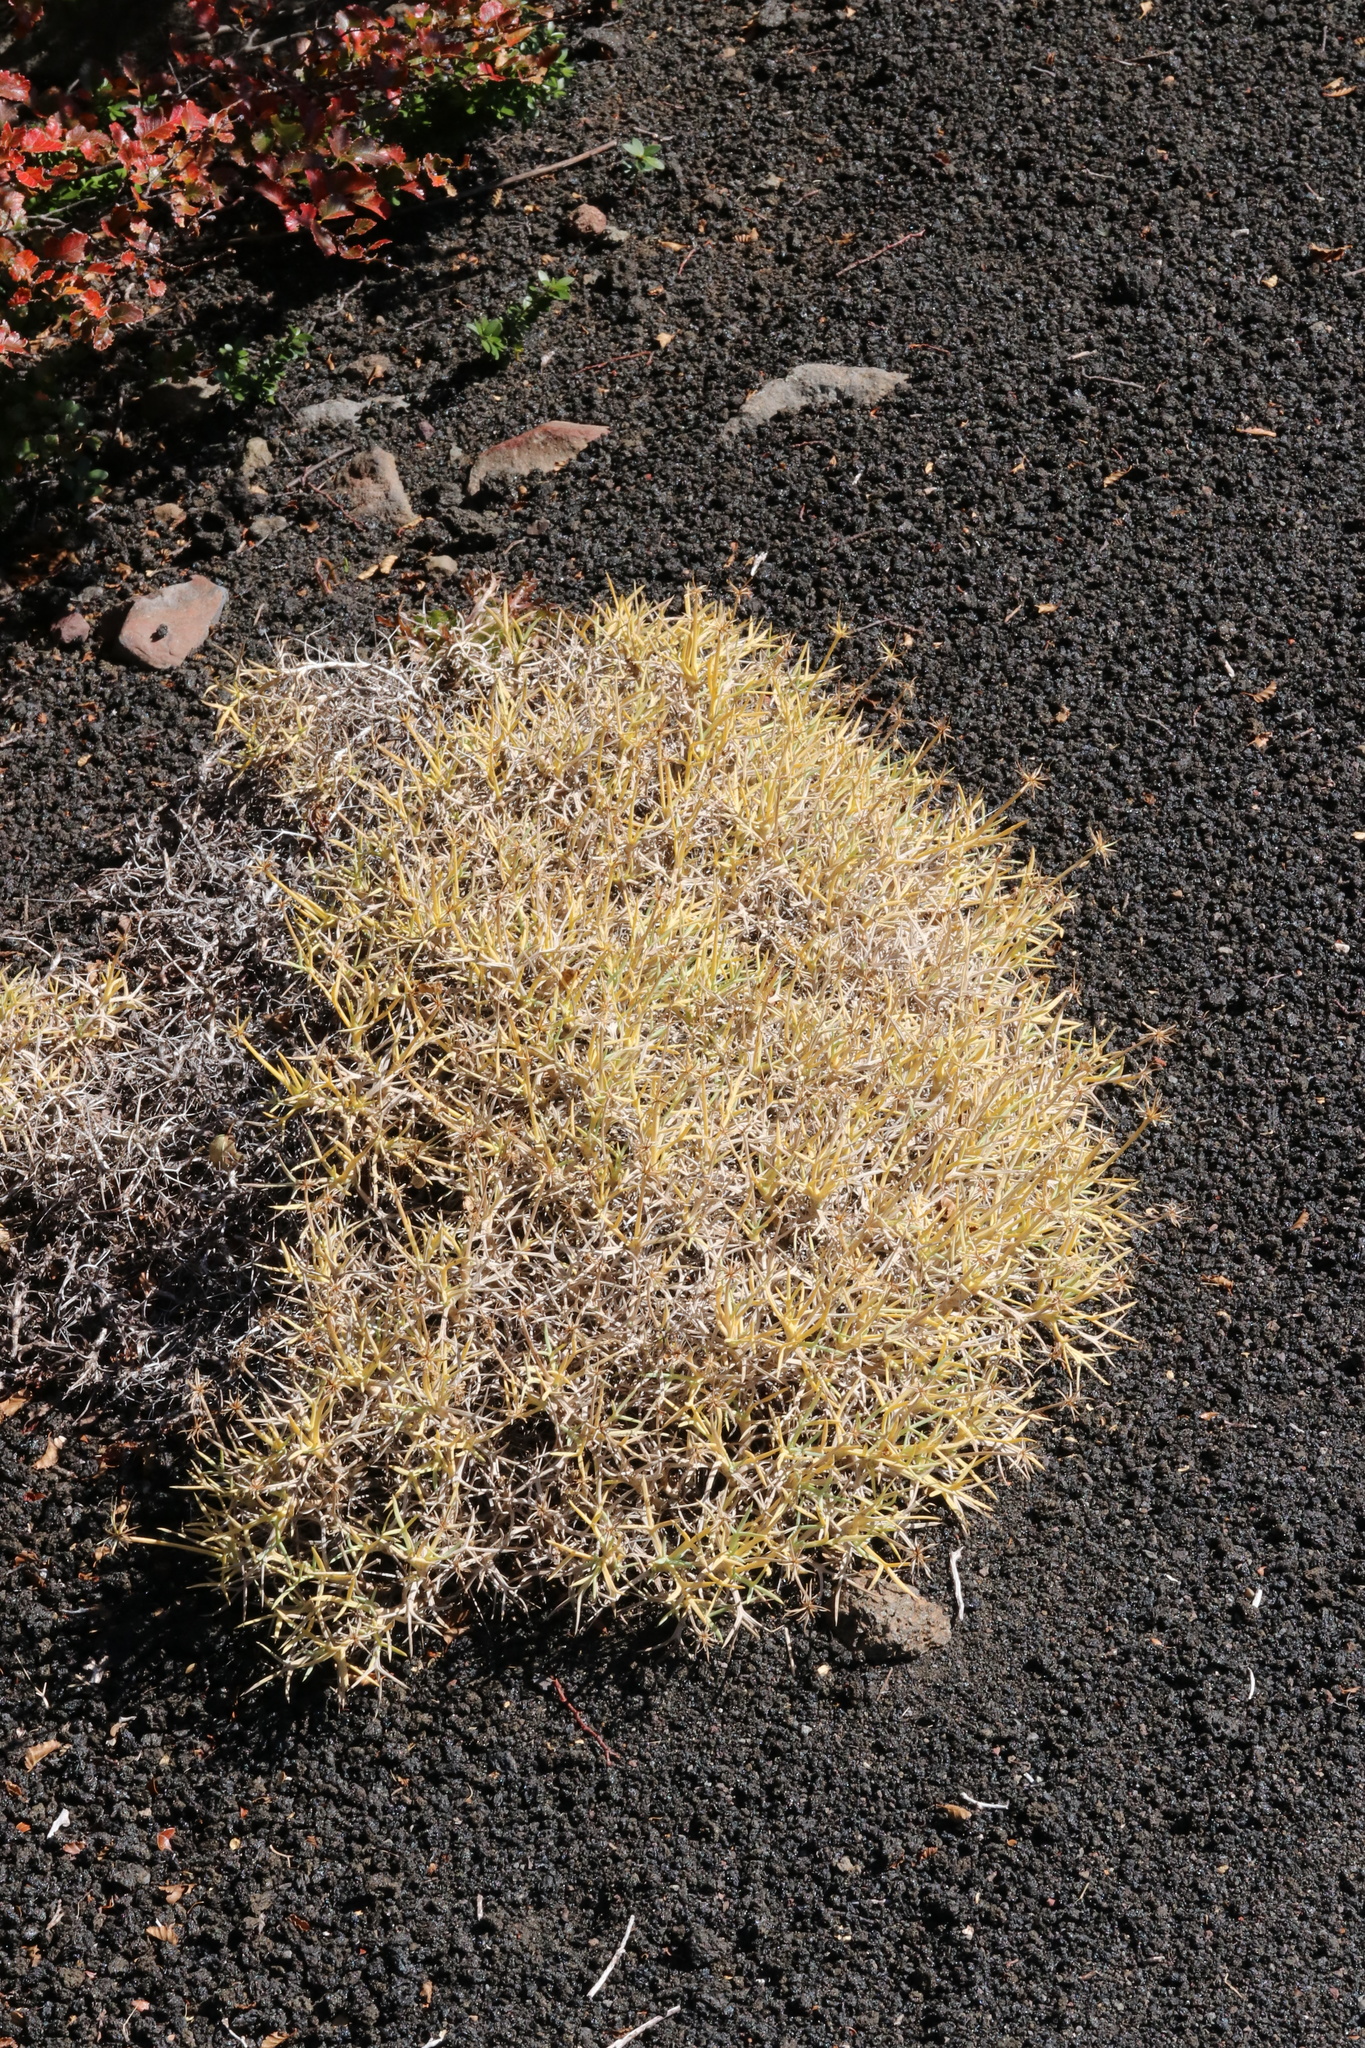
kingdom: Plantae
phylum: Tracheophyta
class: Magnoliopsida
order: Apiales
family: Apiaceae
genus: Azorella
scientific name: Azorella prolifera
